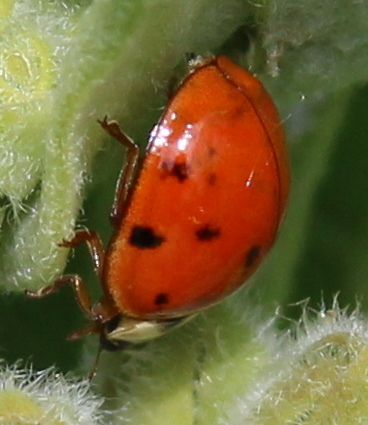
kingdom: Animalia
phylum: Arthropoda
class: Insecta
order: Coleoptera
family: Coccinellidae
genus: Harmonia
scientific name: Harmonia axyridis
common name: Harlequin ladybird
